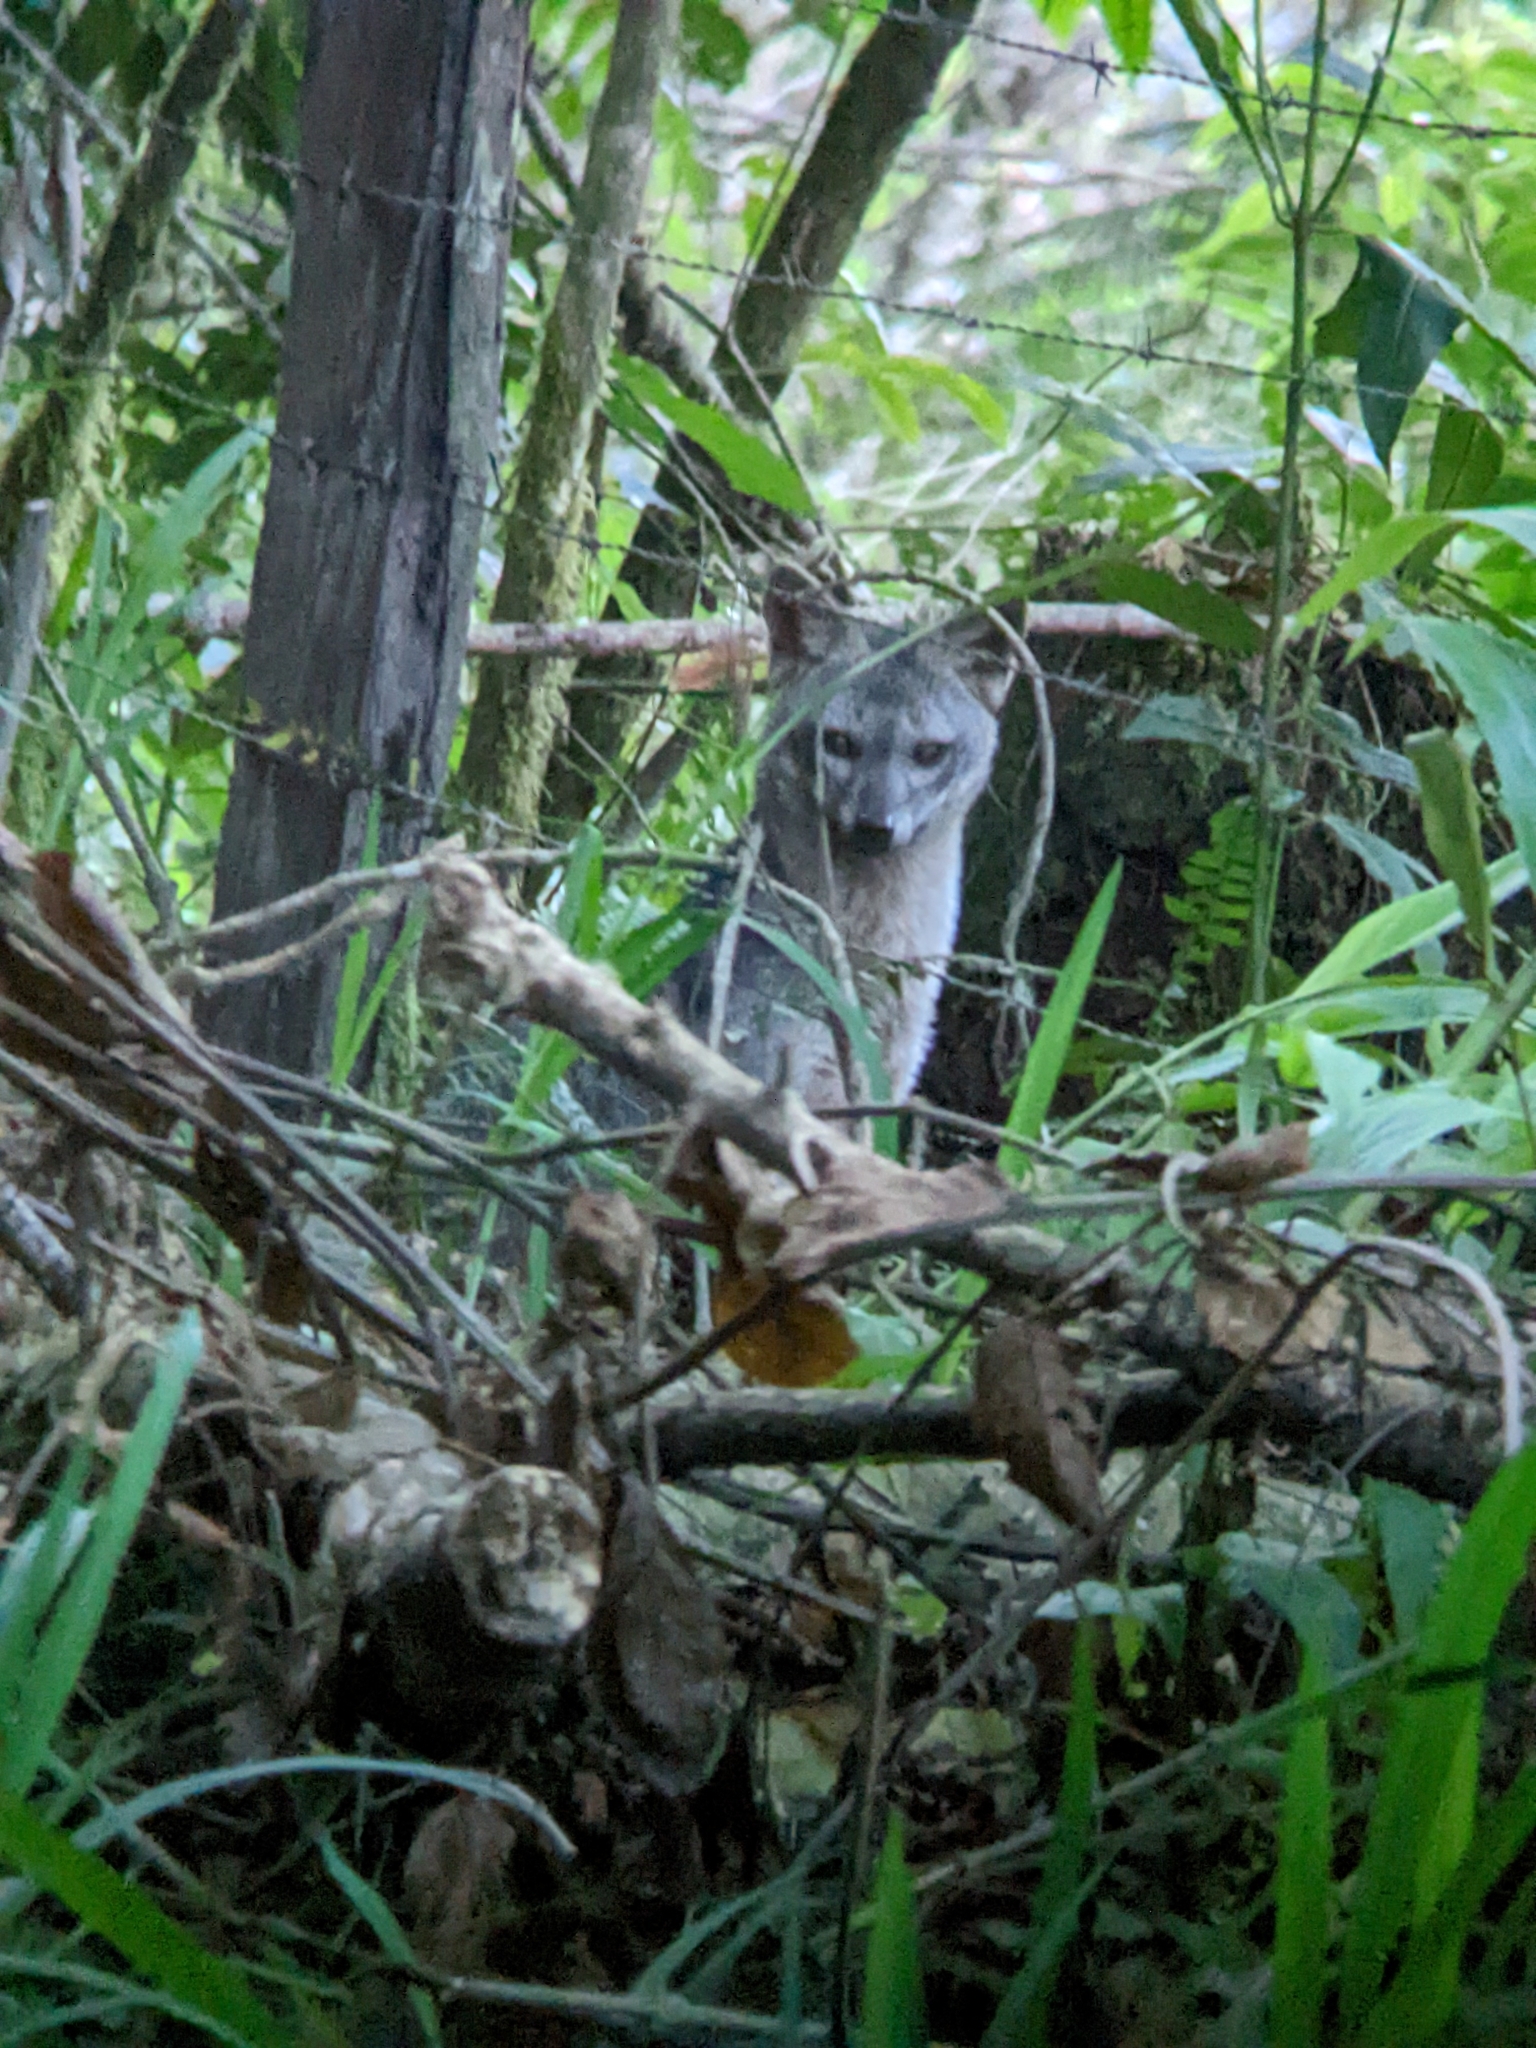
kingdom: Animalia
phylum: Chordata
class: Mammalia
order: Carnivora
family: Canidae
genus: Cerdocyon
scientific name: Cerdocyon thous
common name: Crab-eating fox
